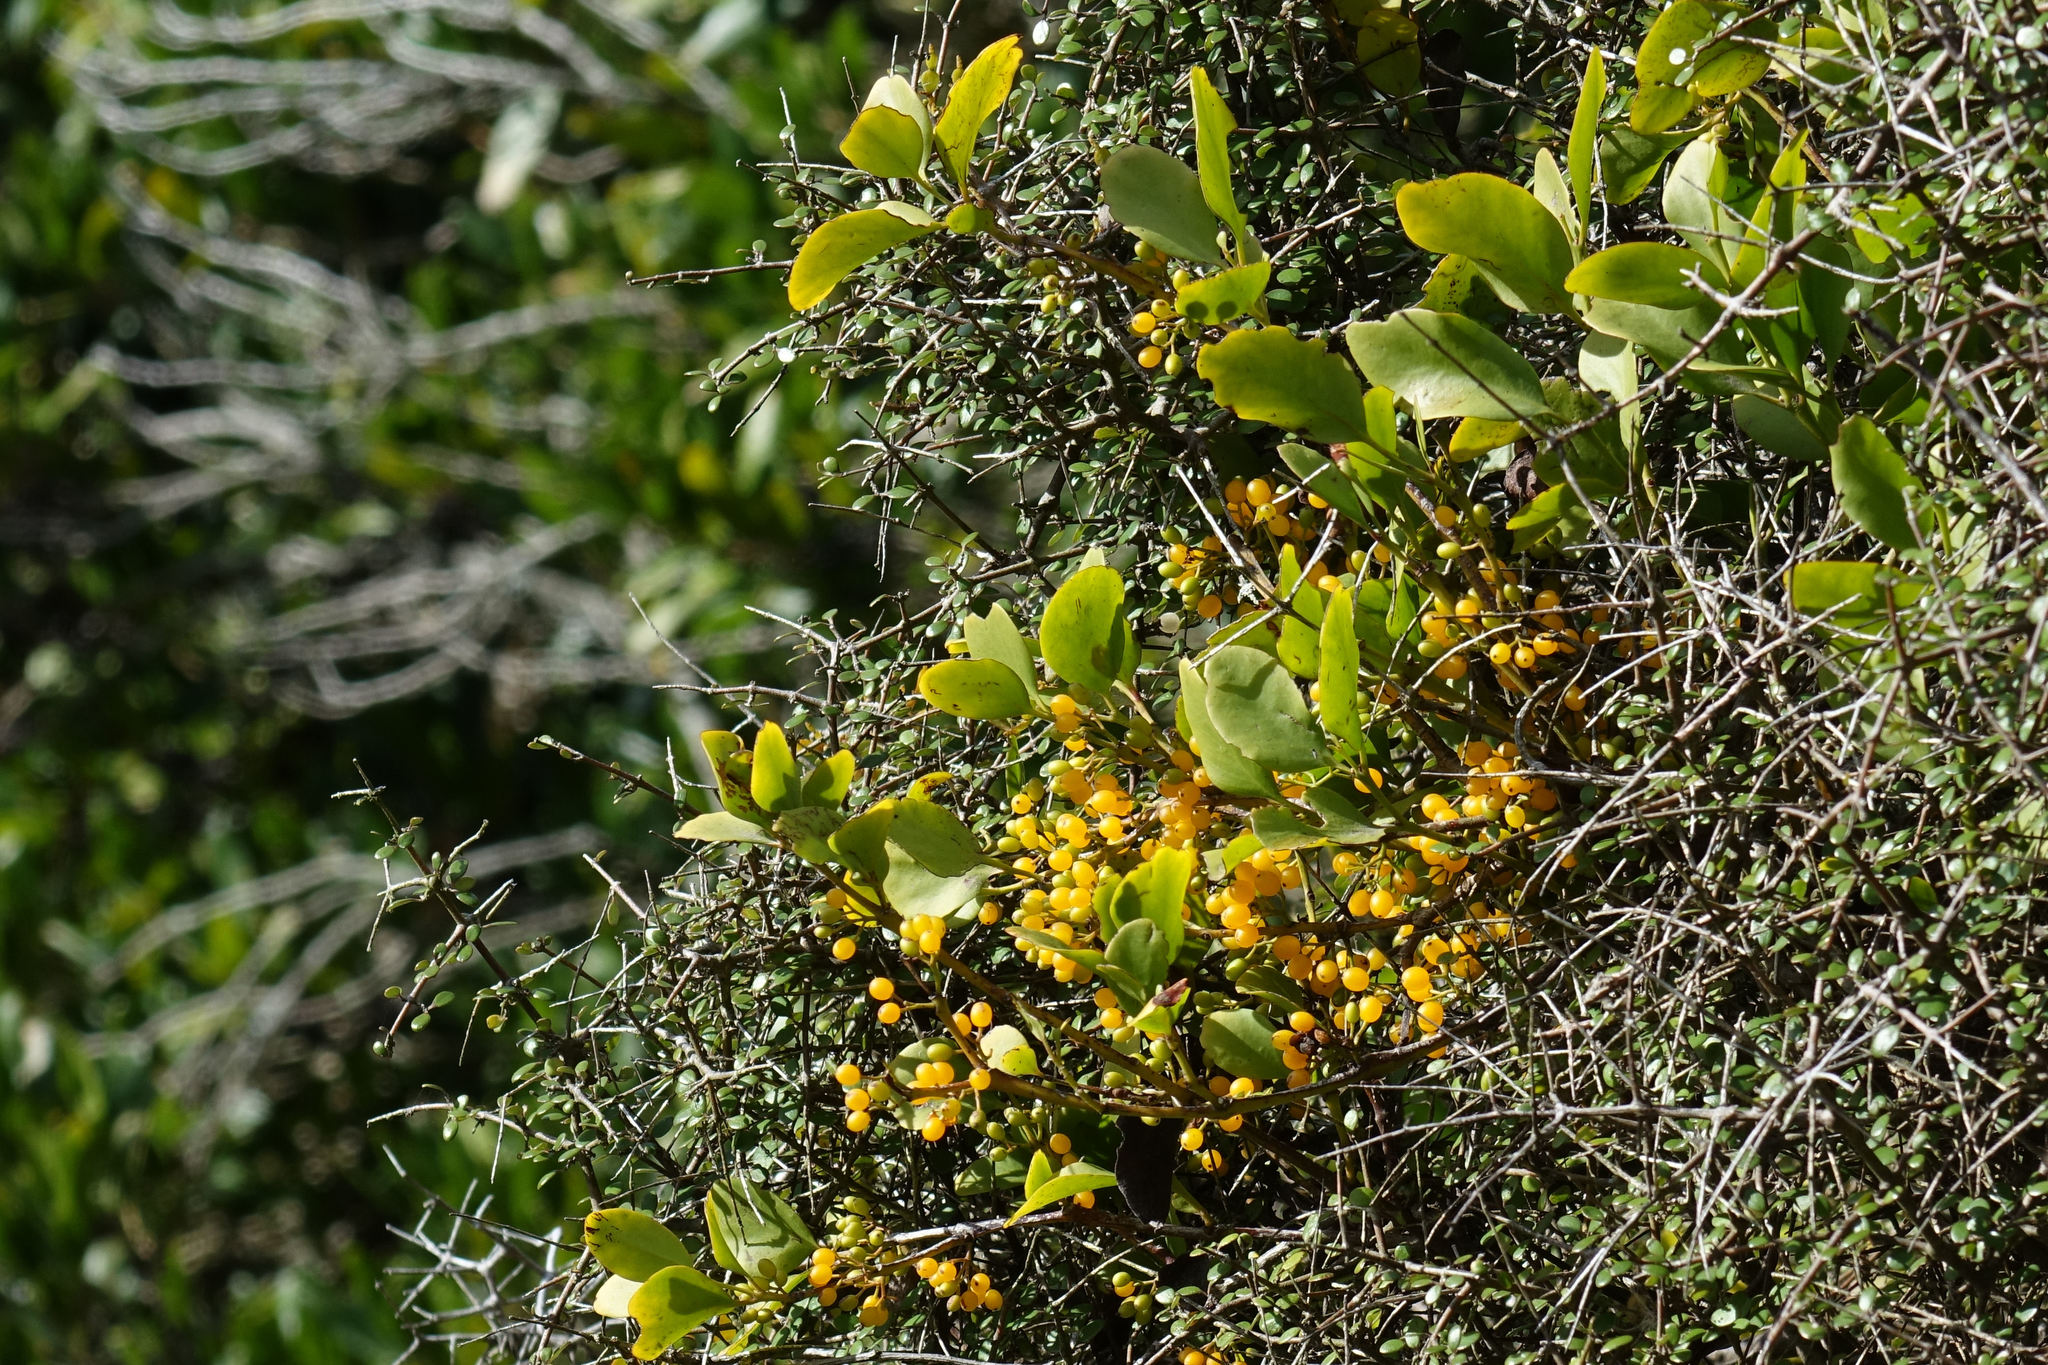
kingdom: Plantae
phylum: Tracheophyta
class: Magnoliopsida
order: Santalales
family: Loranthaceae
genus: Ileostylus
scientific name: Ileostylus micranthus
